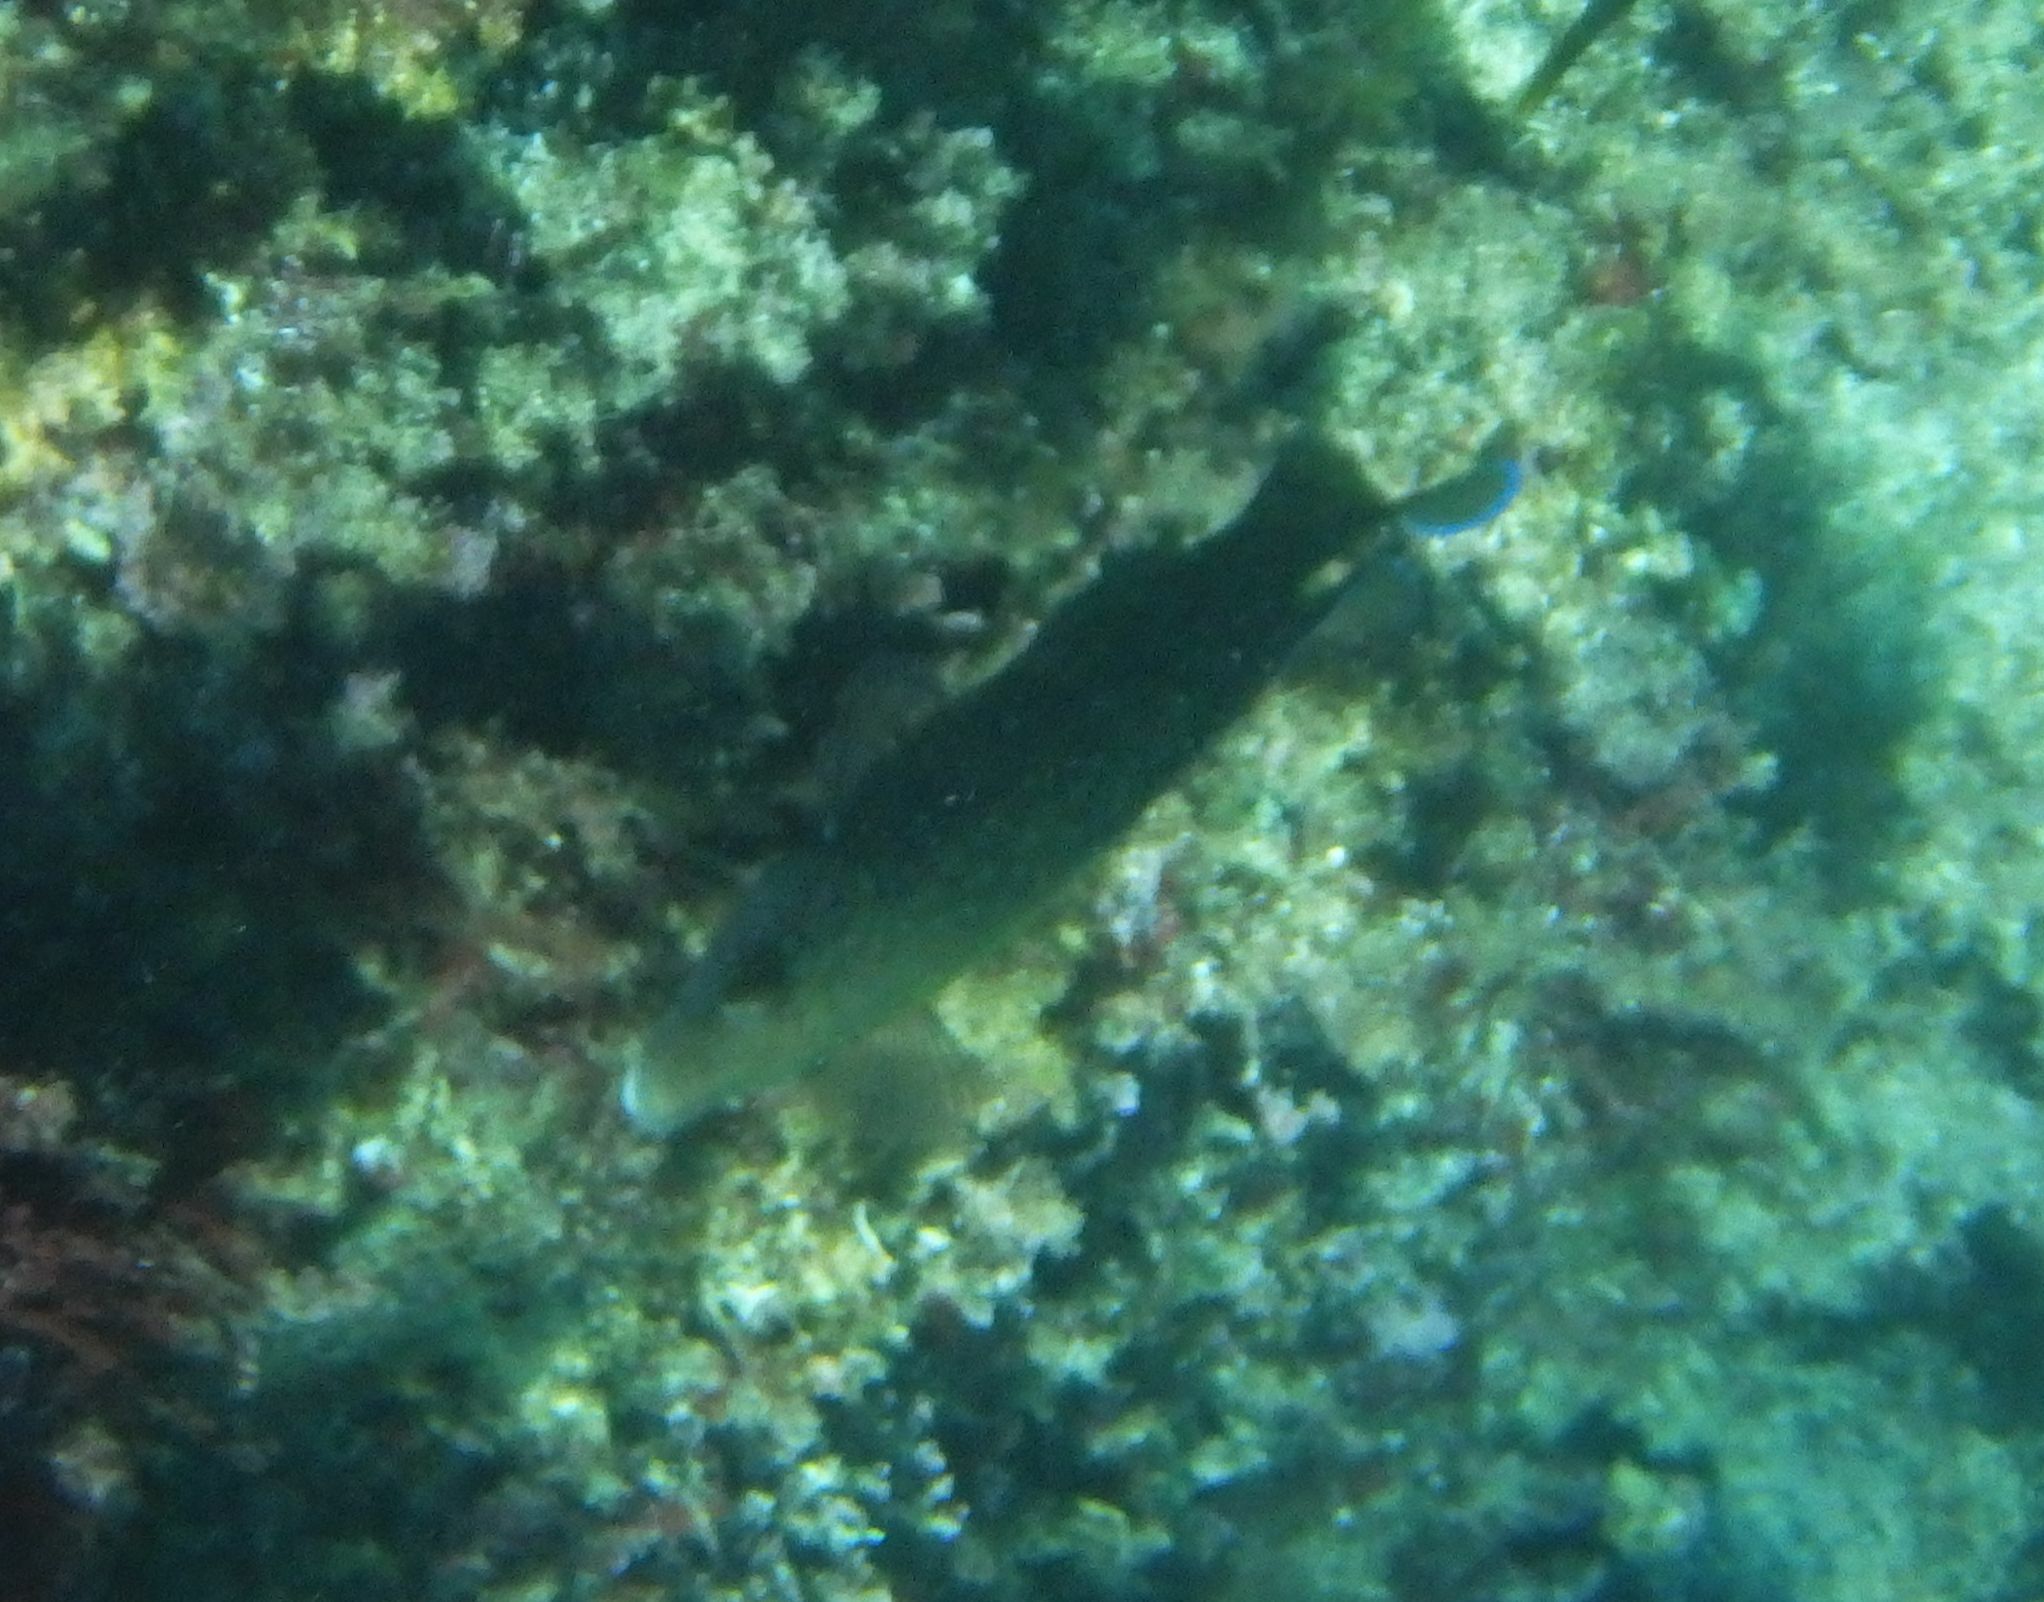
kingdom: Animalia
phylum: Chordata
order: Perciformes
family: Labridae
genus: Labrus
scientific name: Labrus merula
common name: Brown wrasse
